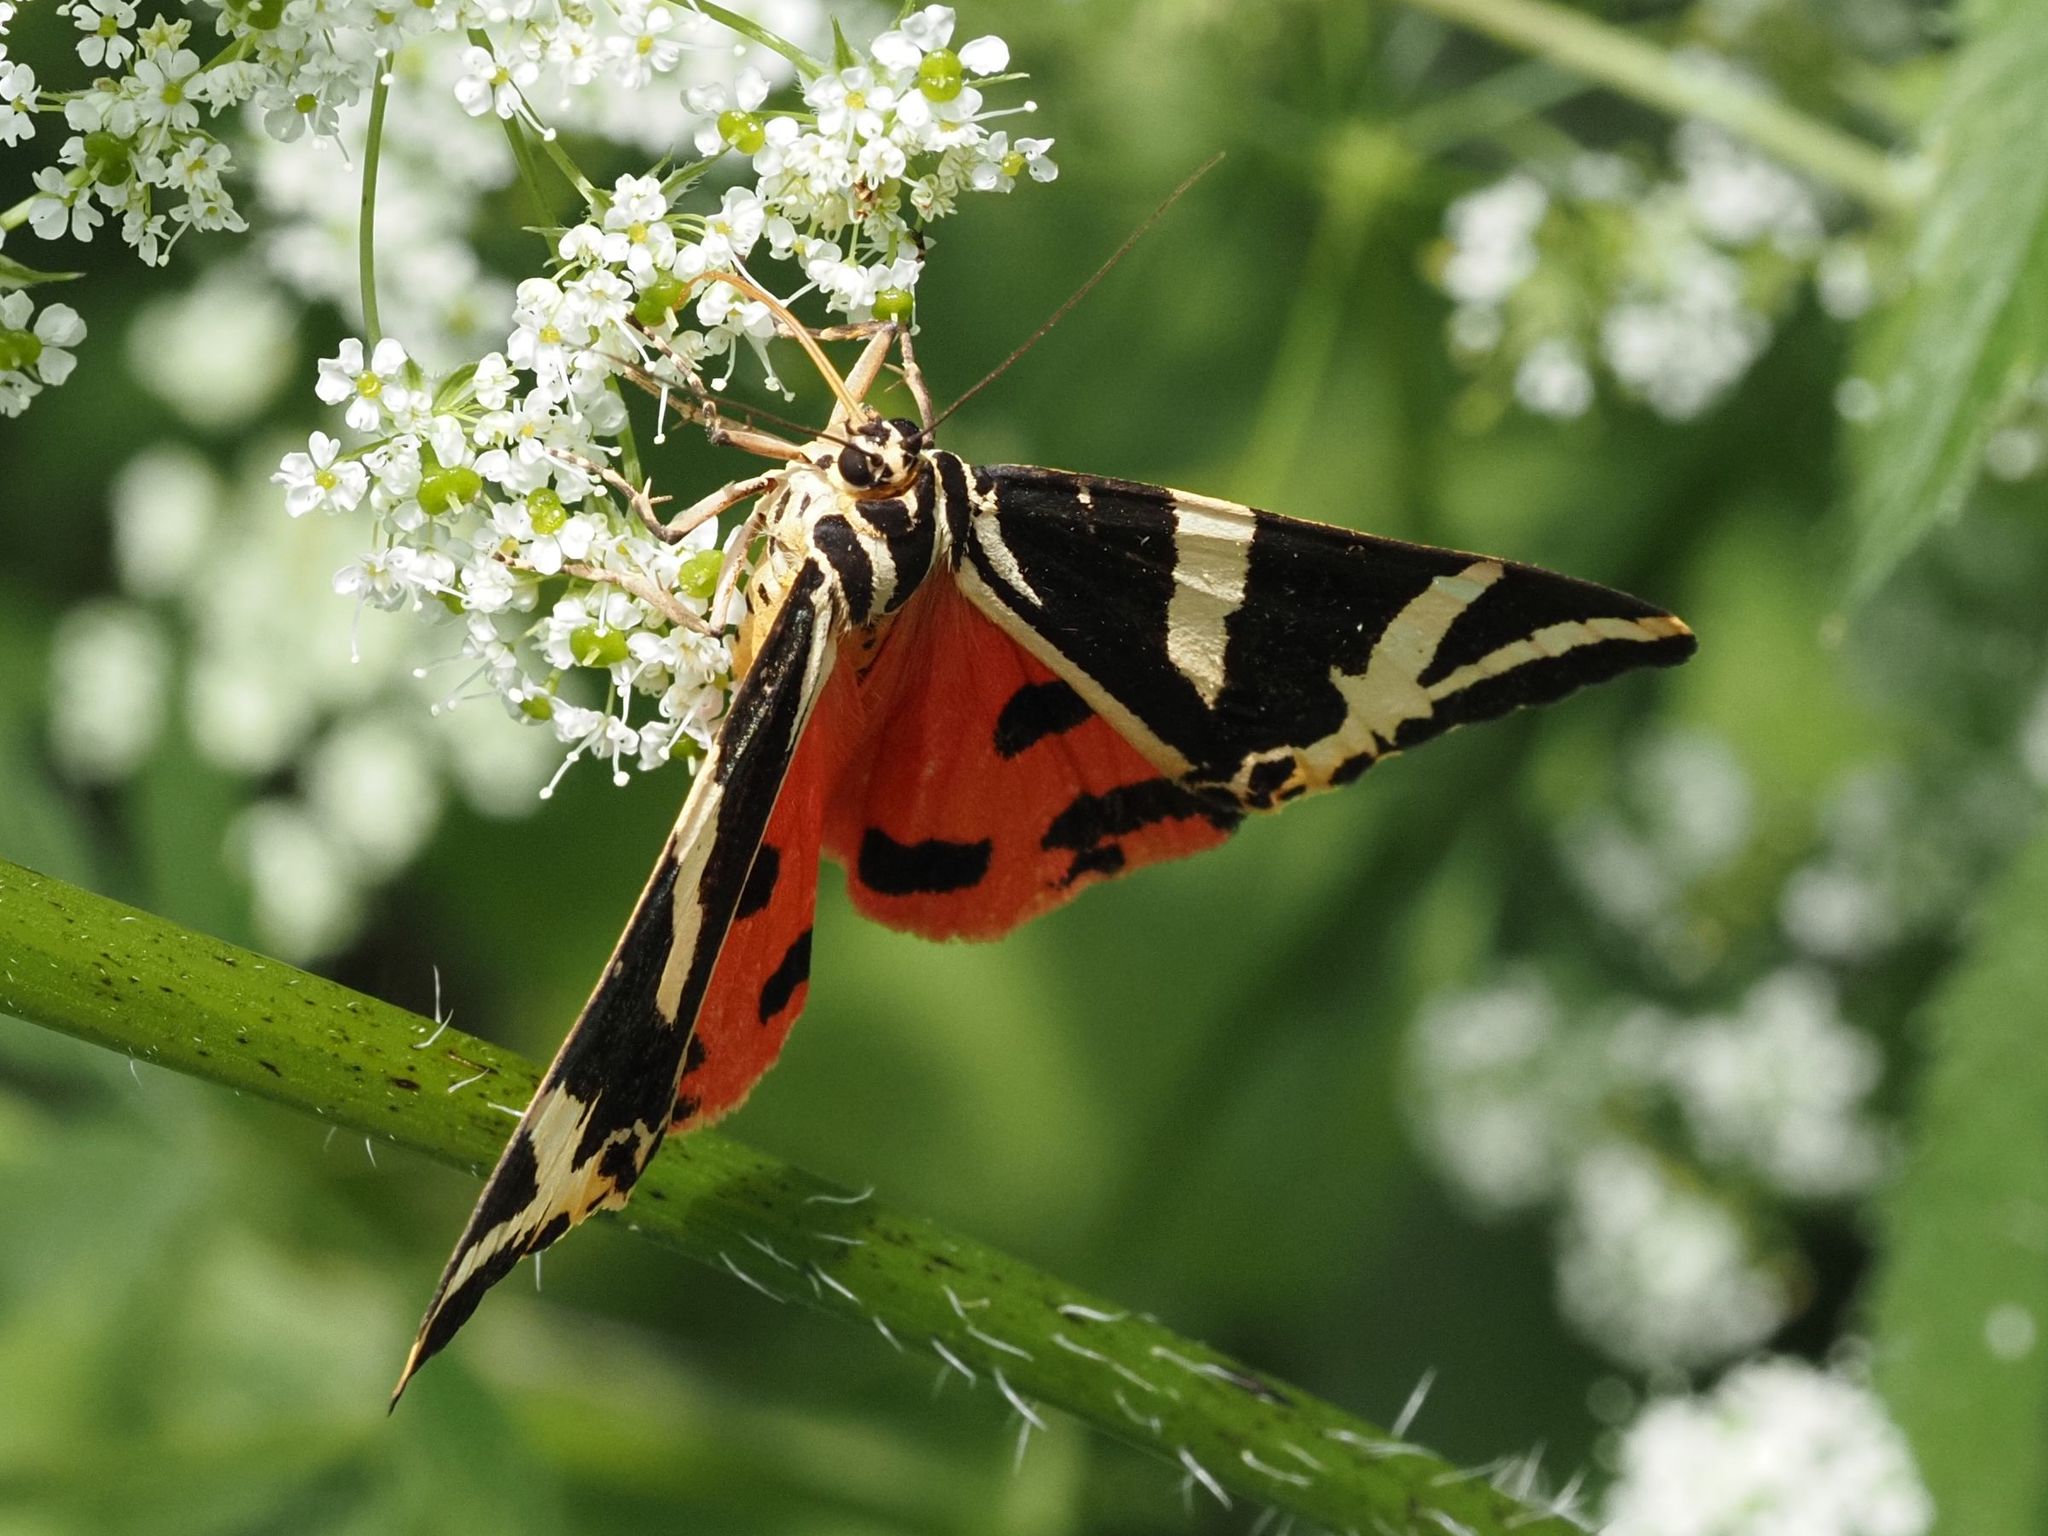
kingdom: Animalia
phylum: Arthropoda
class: Insecta
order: Lepidoptera
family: Erebidae
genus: Euplagia
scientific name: Euplagia quadripunctaria
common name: Jersey tiger
